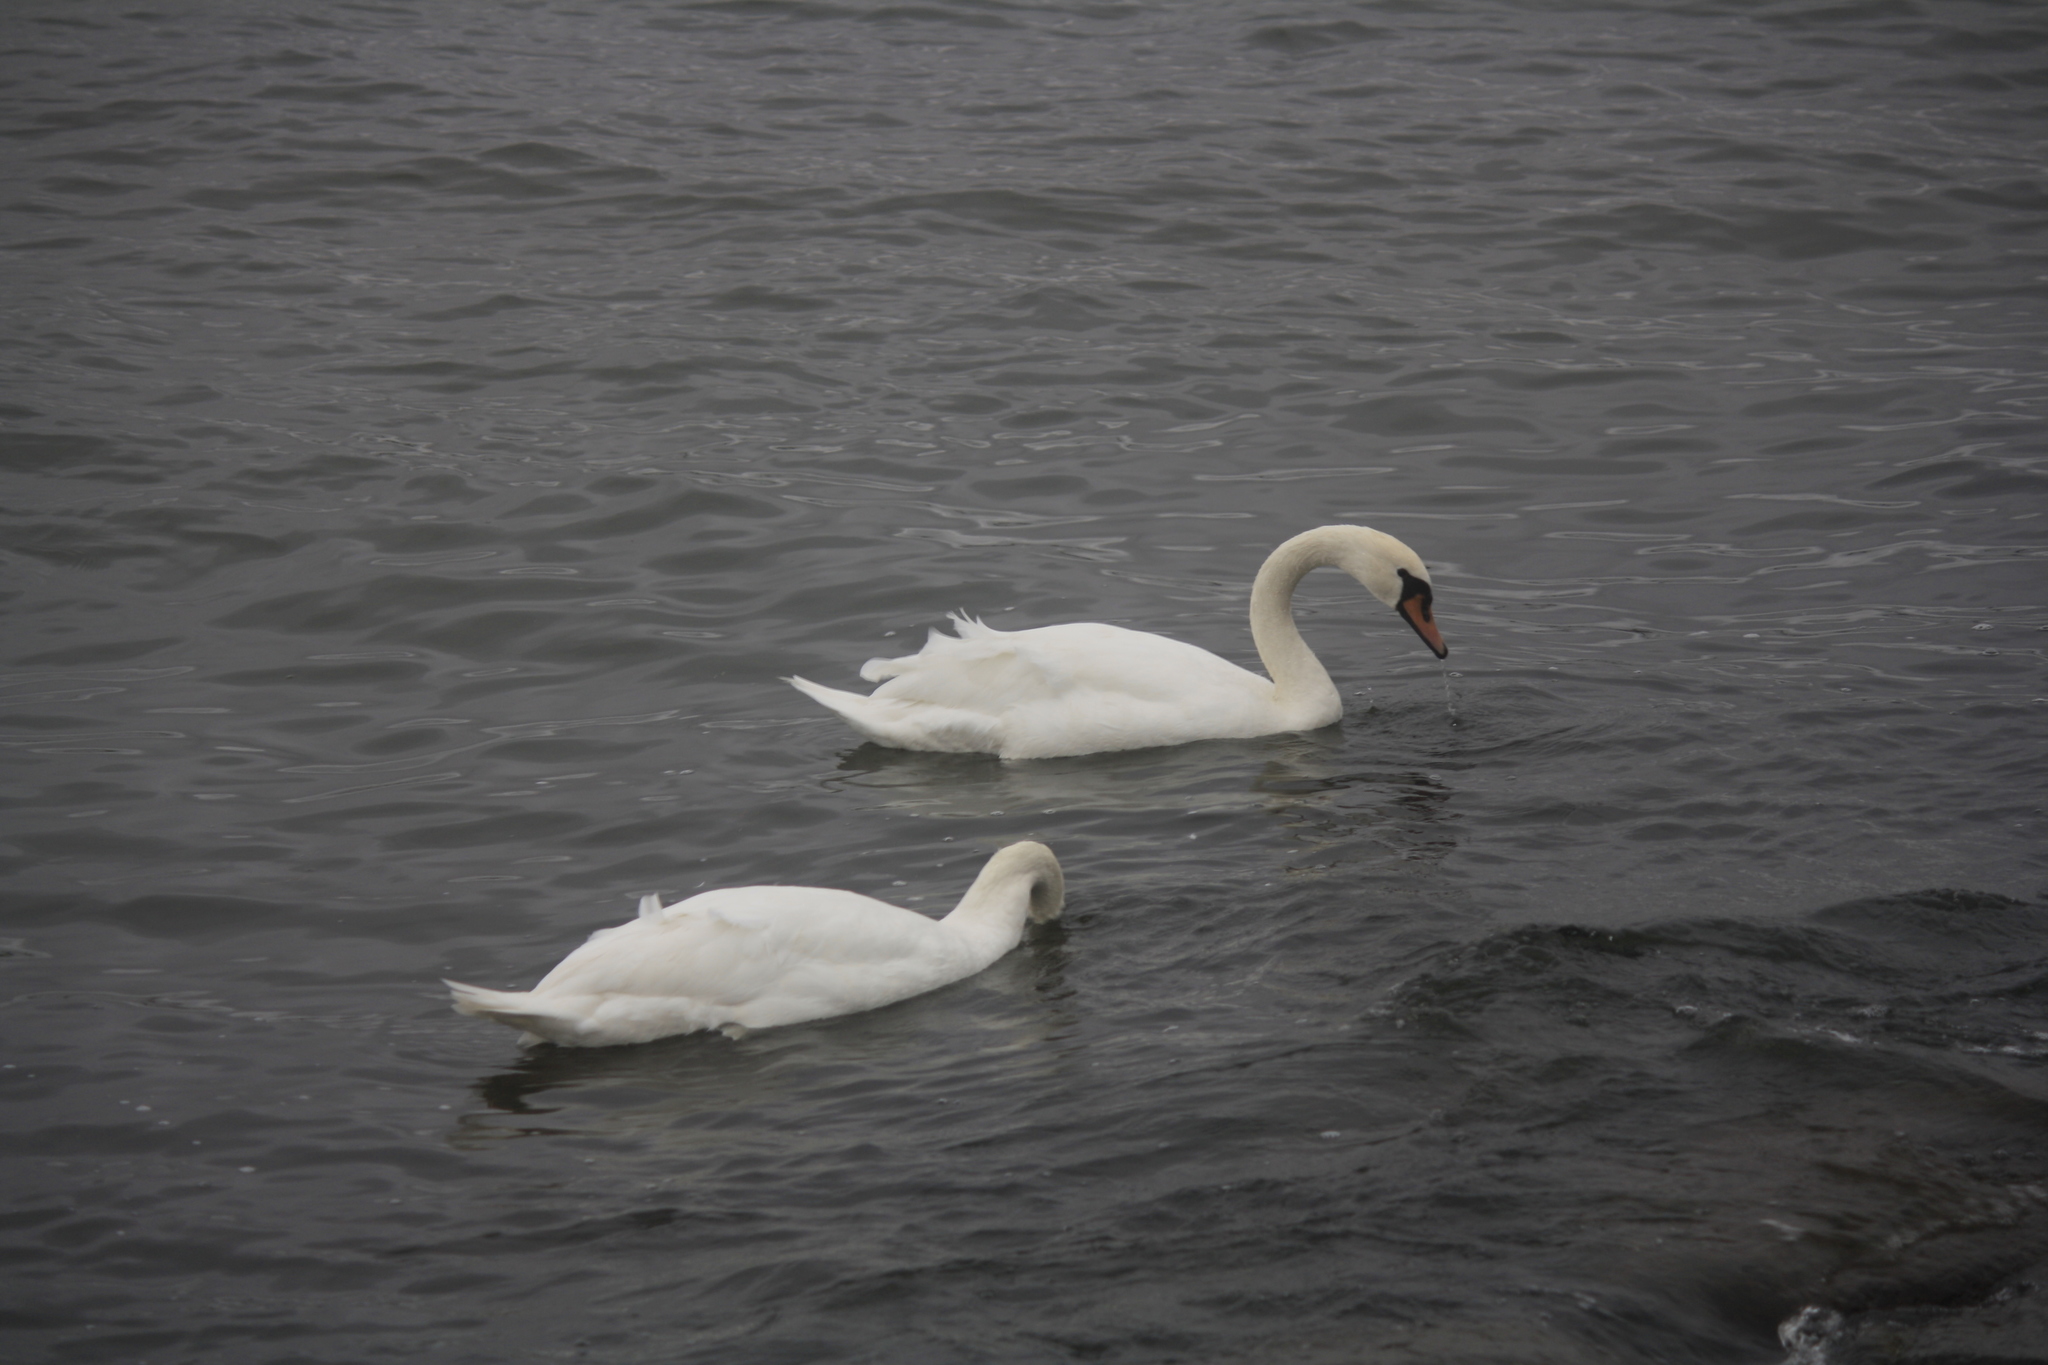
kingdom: Animalia
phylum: Chordata
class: Aves
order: Anseriformes
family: Anatidae
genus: Cygnus
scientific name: Cygnus olor
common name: Mute swan
